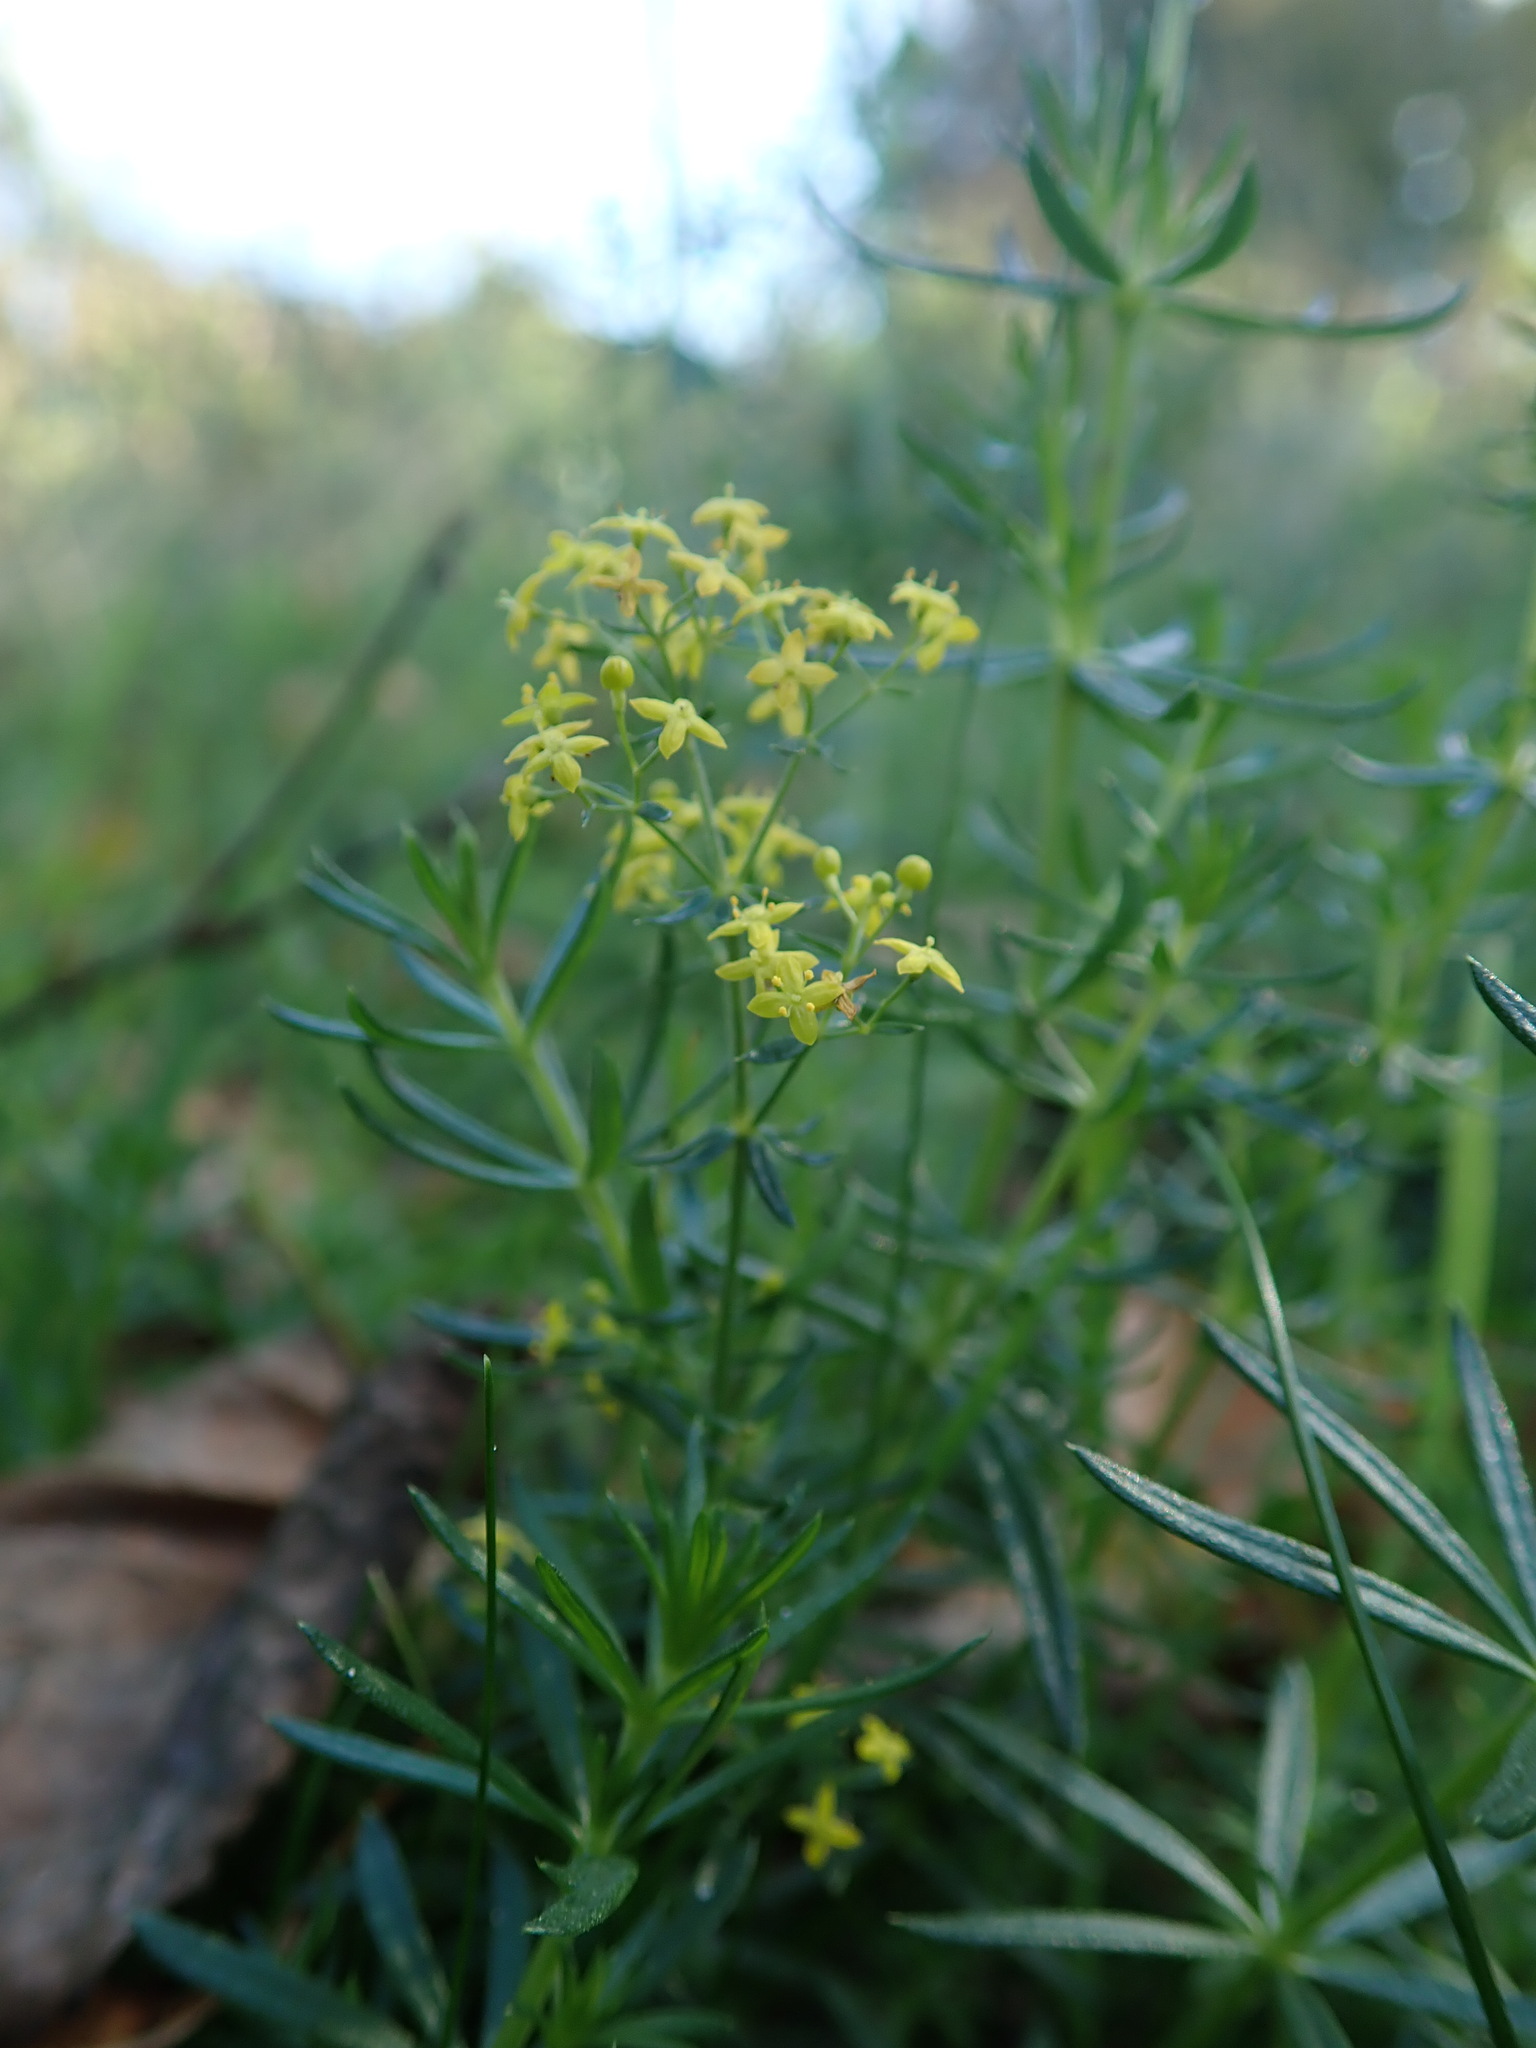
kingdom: Plantae
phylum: Tracheophyta
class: Magnoliopsida
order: Gentianales
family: Rubiaceae
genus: Galium
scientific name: Galium verum
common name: Lady's bedstraw
